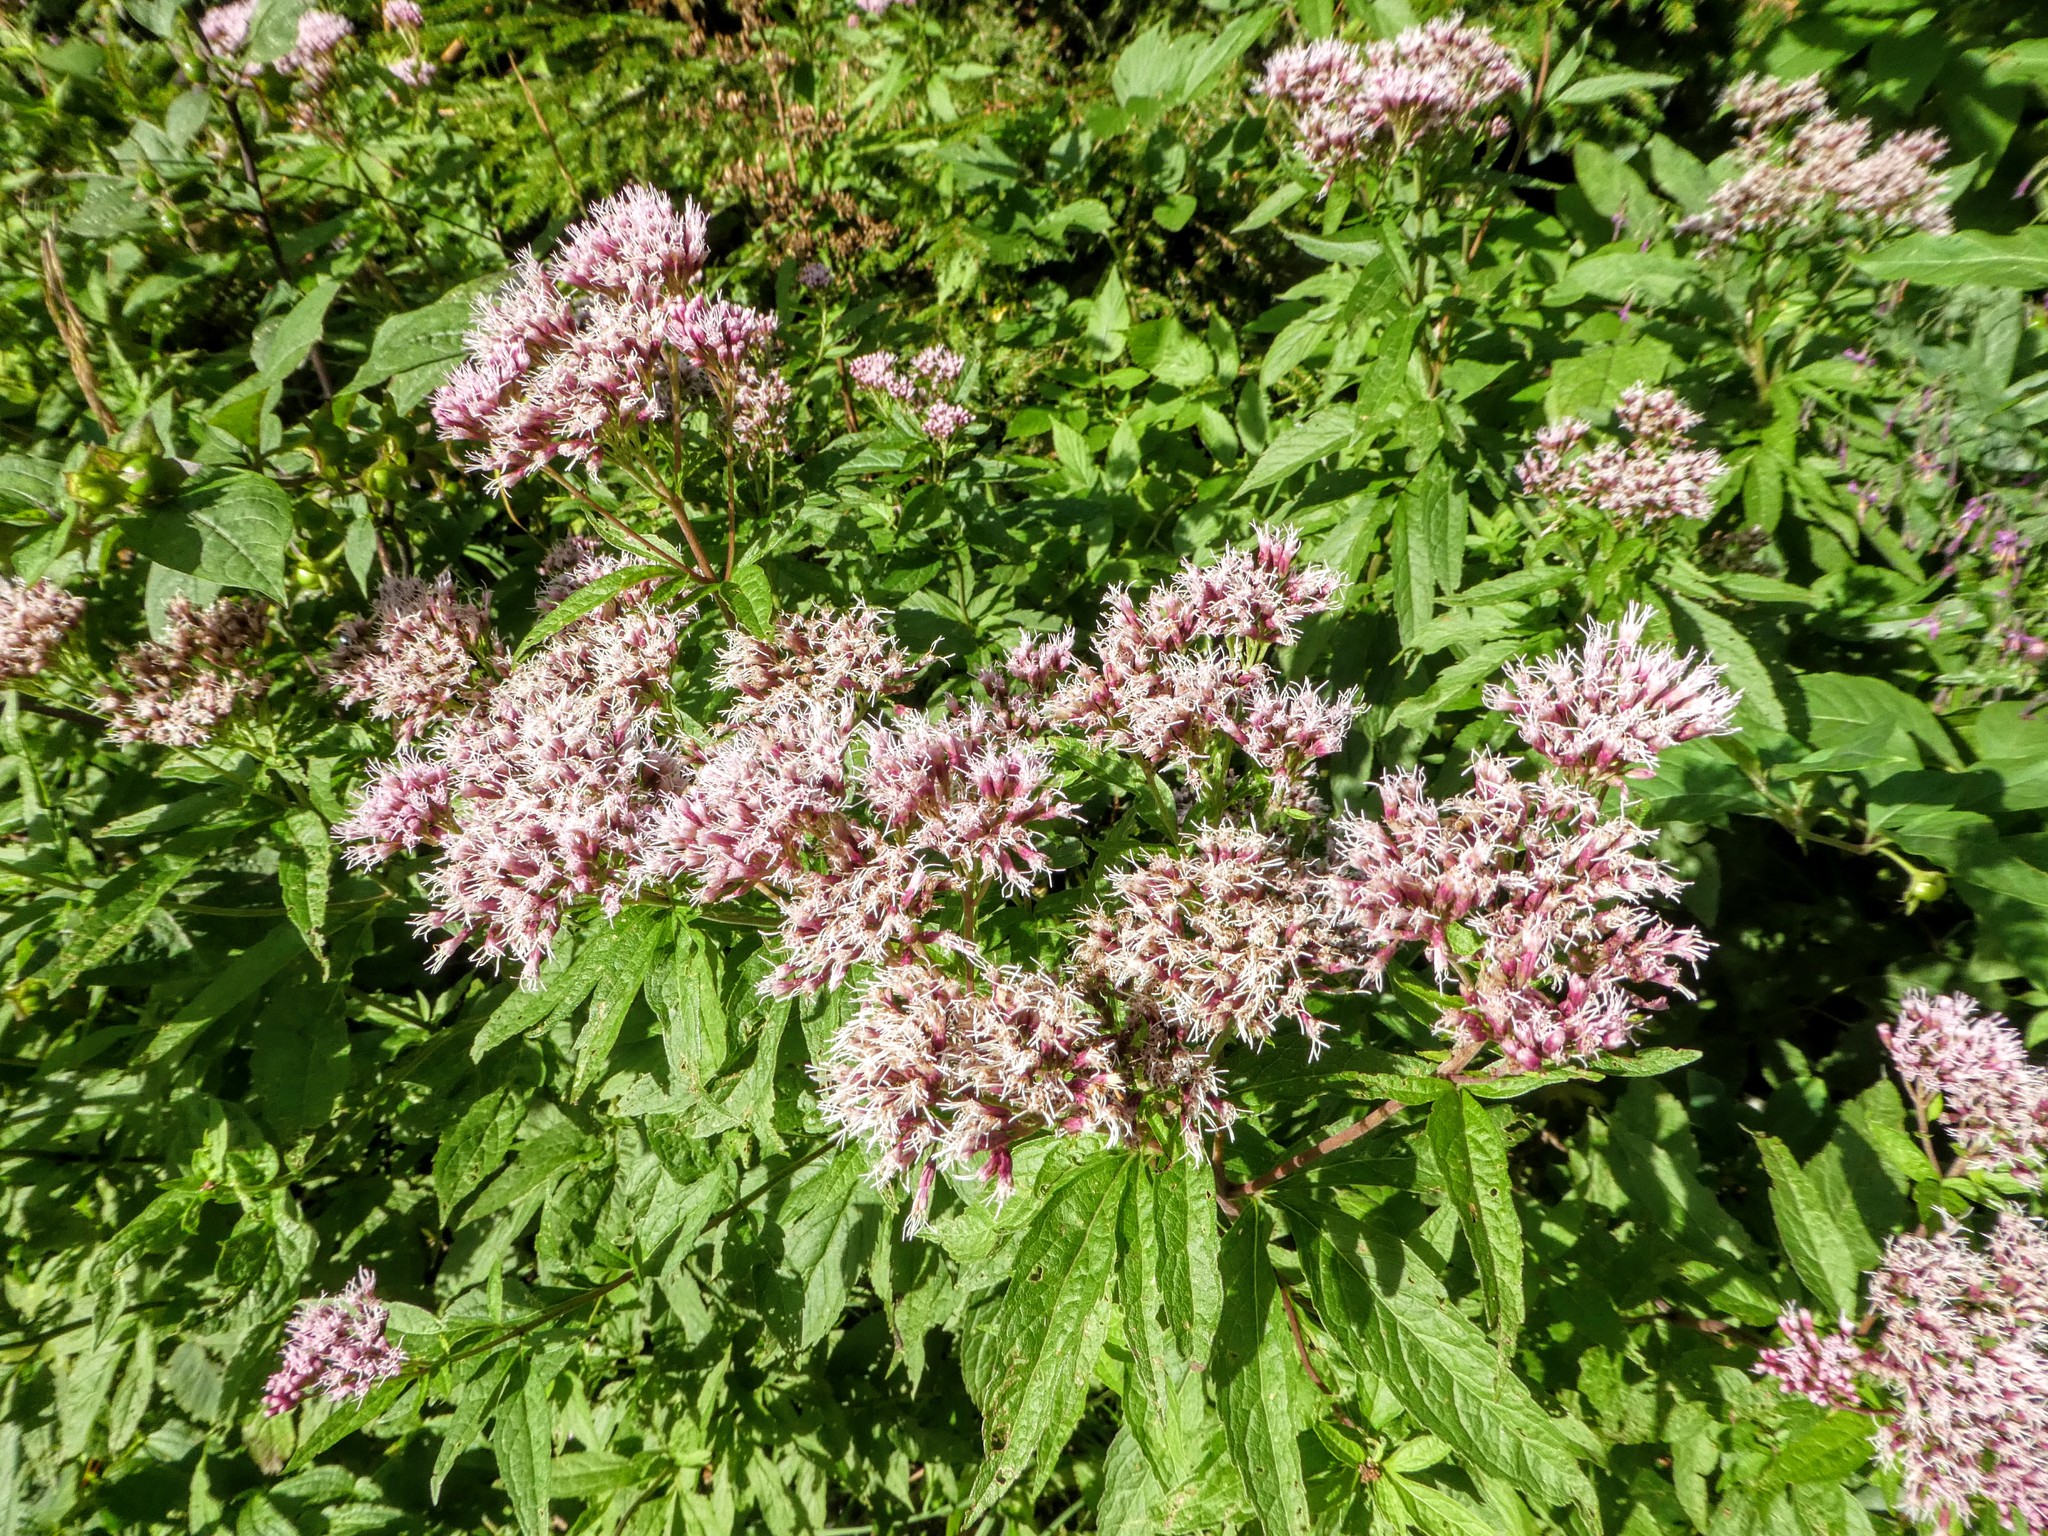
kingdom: Plantae
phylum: Tracheophyta
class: Magnoliopsida
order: Asterales
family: Asteraceae
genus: Eupatorium
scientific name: Eupatorium cannabinum
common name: Hemp-agrimony
